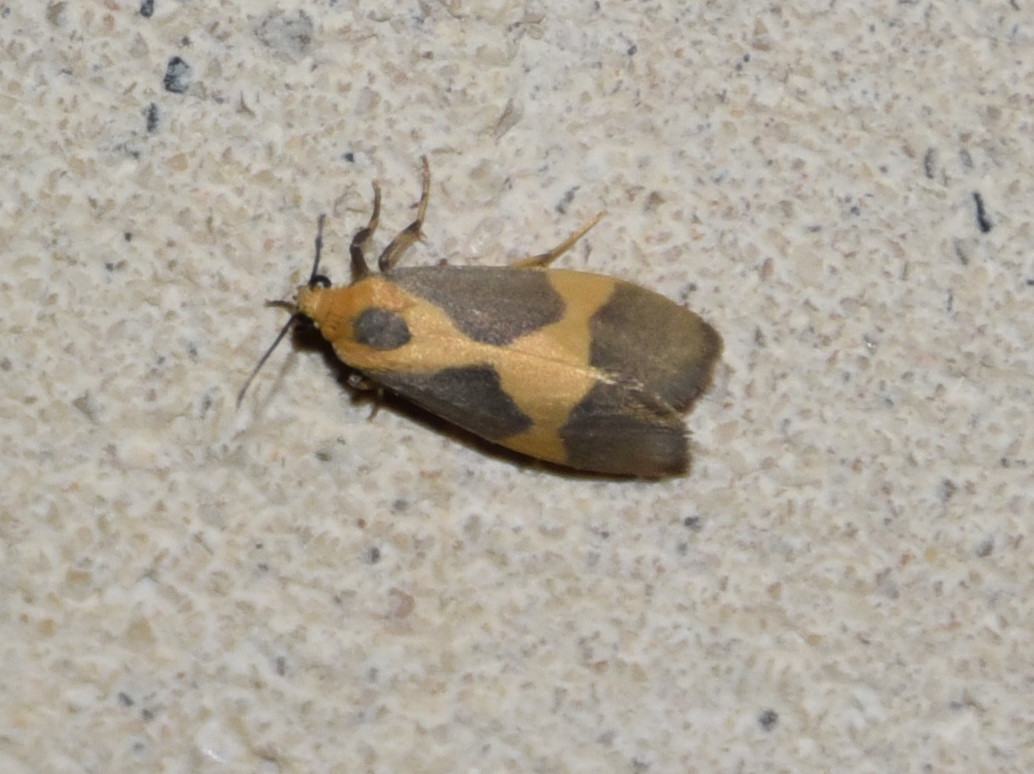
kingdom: Animalia
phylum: Arthropoda
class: Insecta
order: Lepidoptera
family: Erebidae
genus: Cisthene
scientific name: Cisthene unifascia
